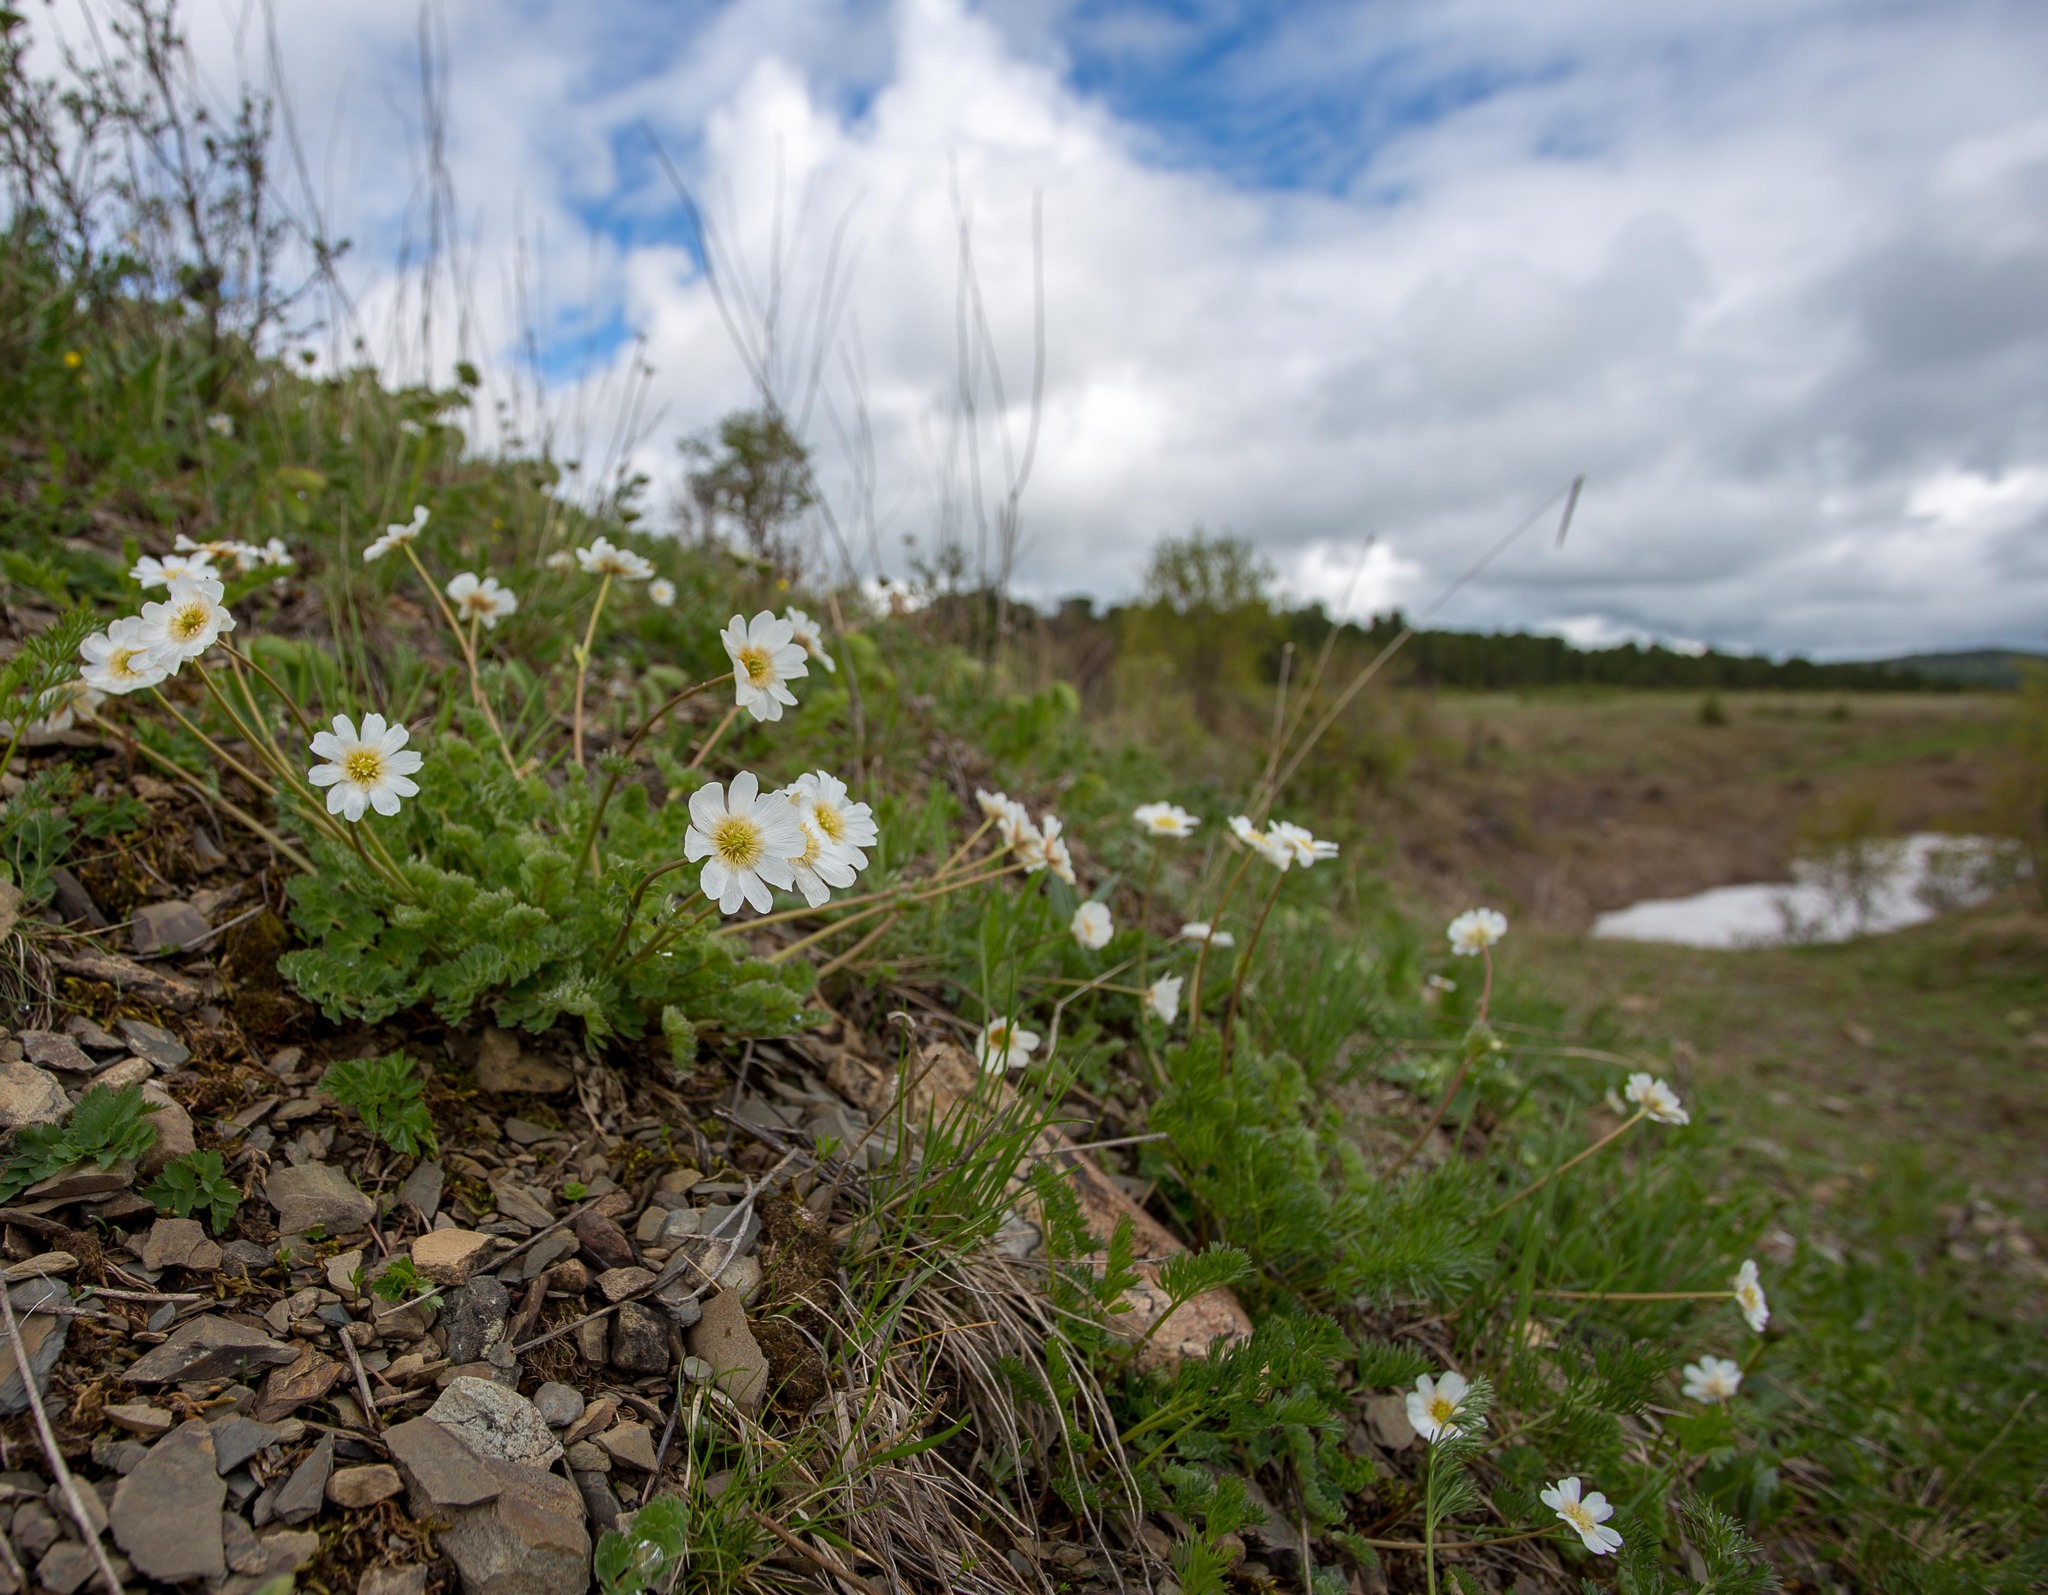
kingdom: Plantae
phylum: Tracheophyta
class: Magnoliopsida
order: Ranunculales
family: Ranunculaceae
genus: Callianthemum
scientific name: Callianthemum sajanense
